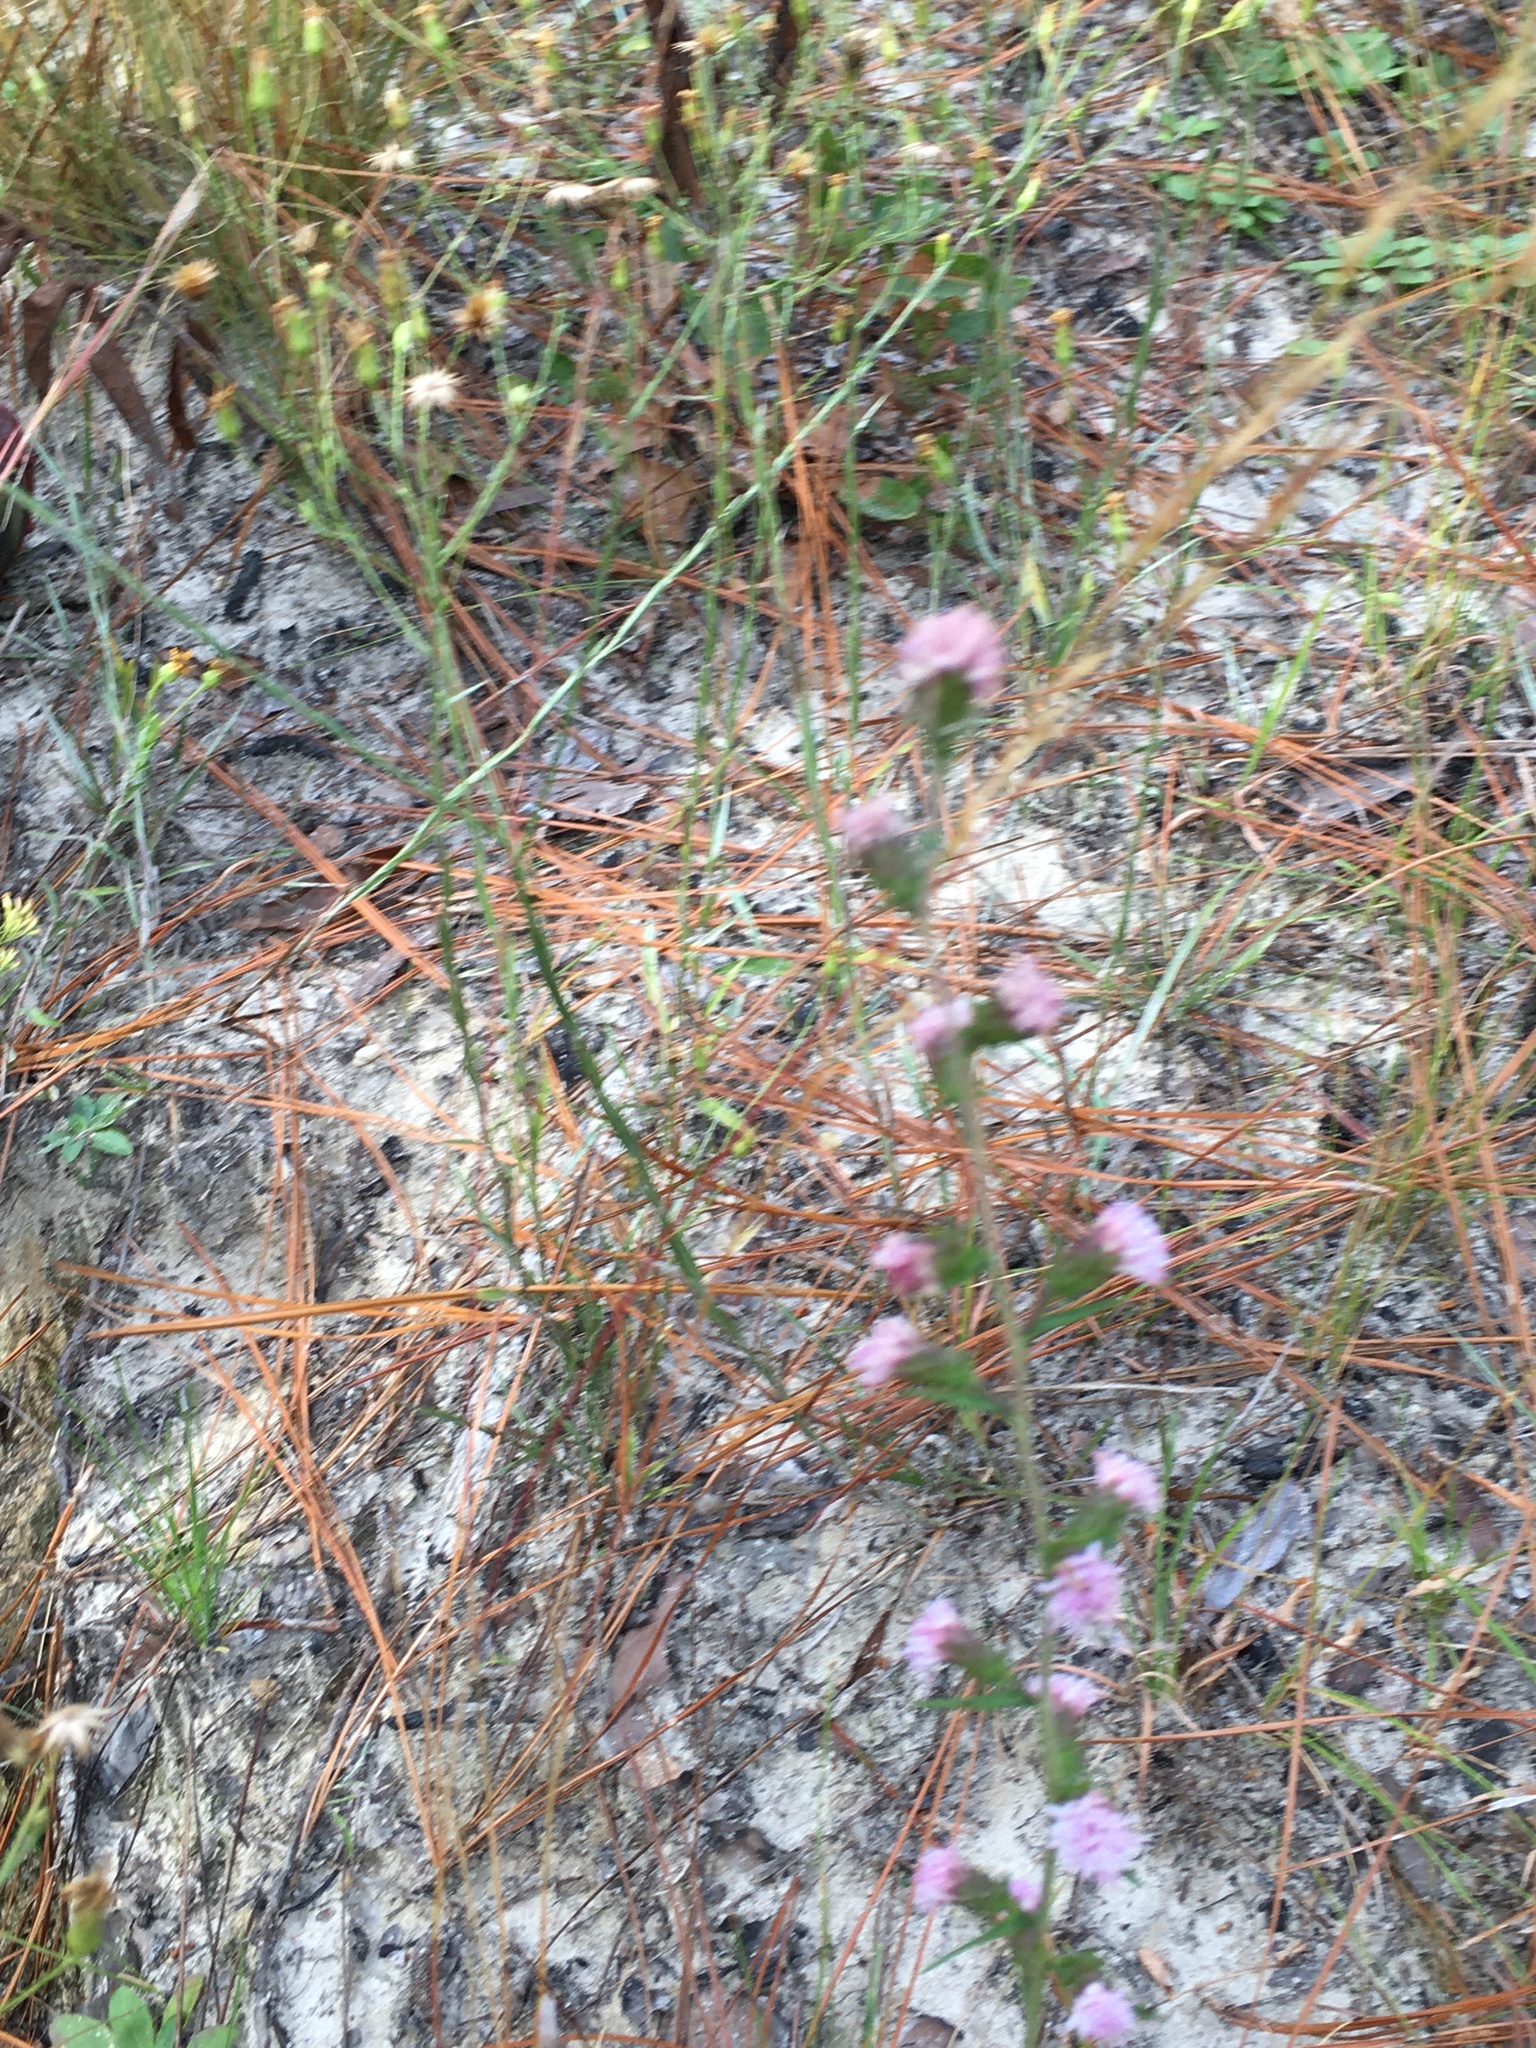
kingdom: Plantae
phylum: Tracheophyta
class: Magnoliopsida
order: Asterales
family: Asteraceae
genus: Liatris
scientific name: Liatris squarrulosa
